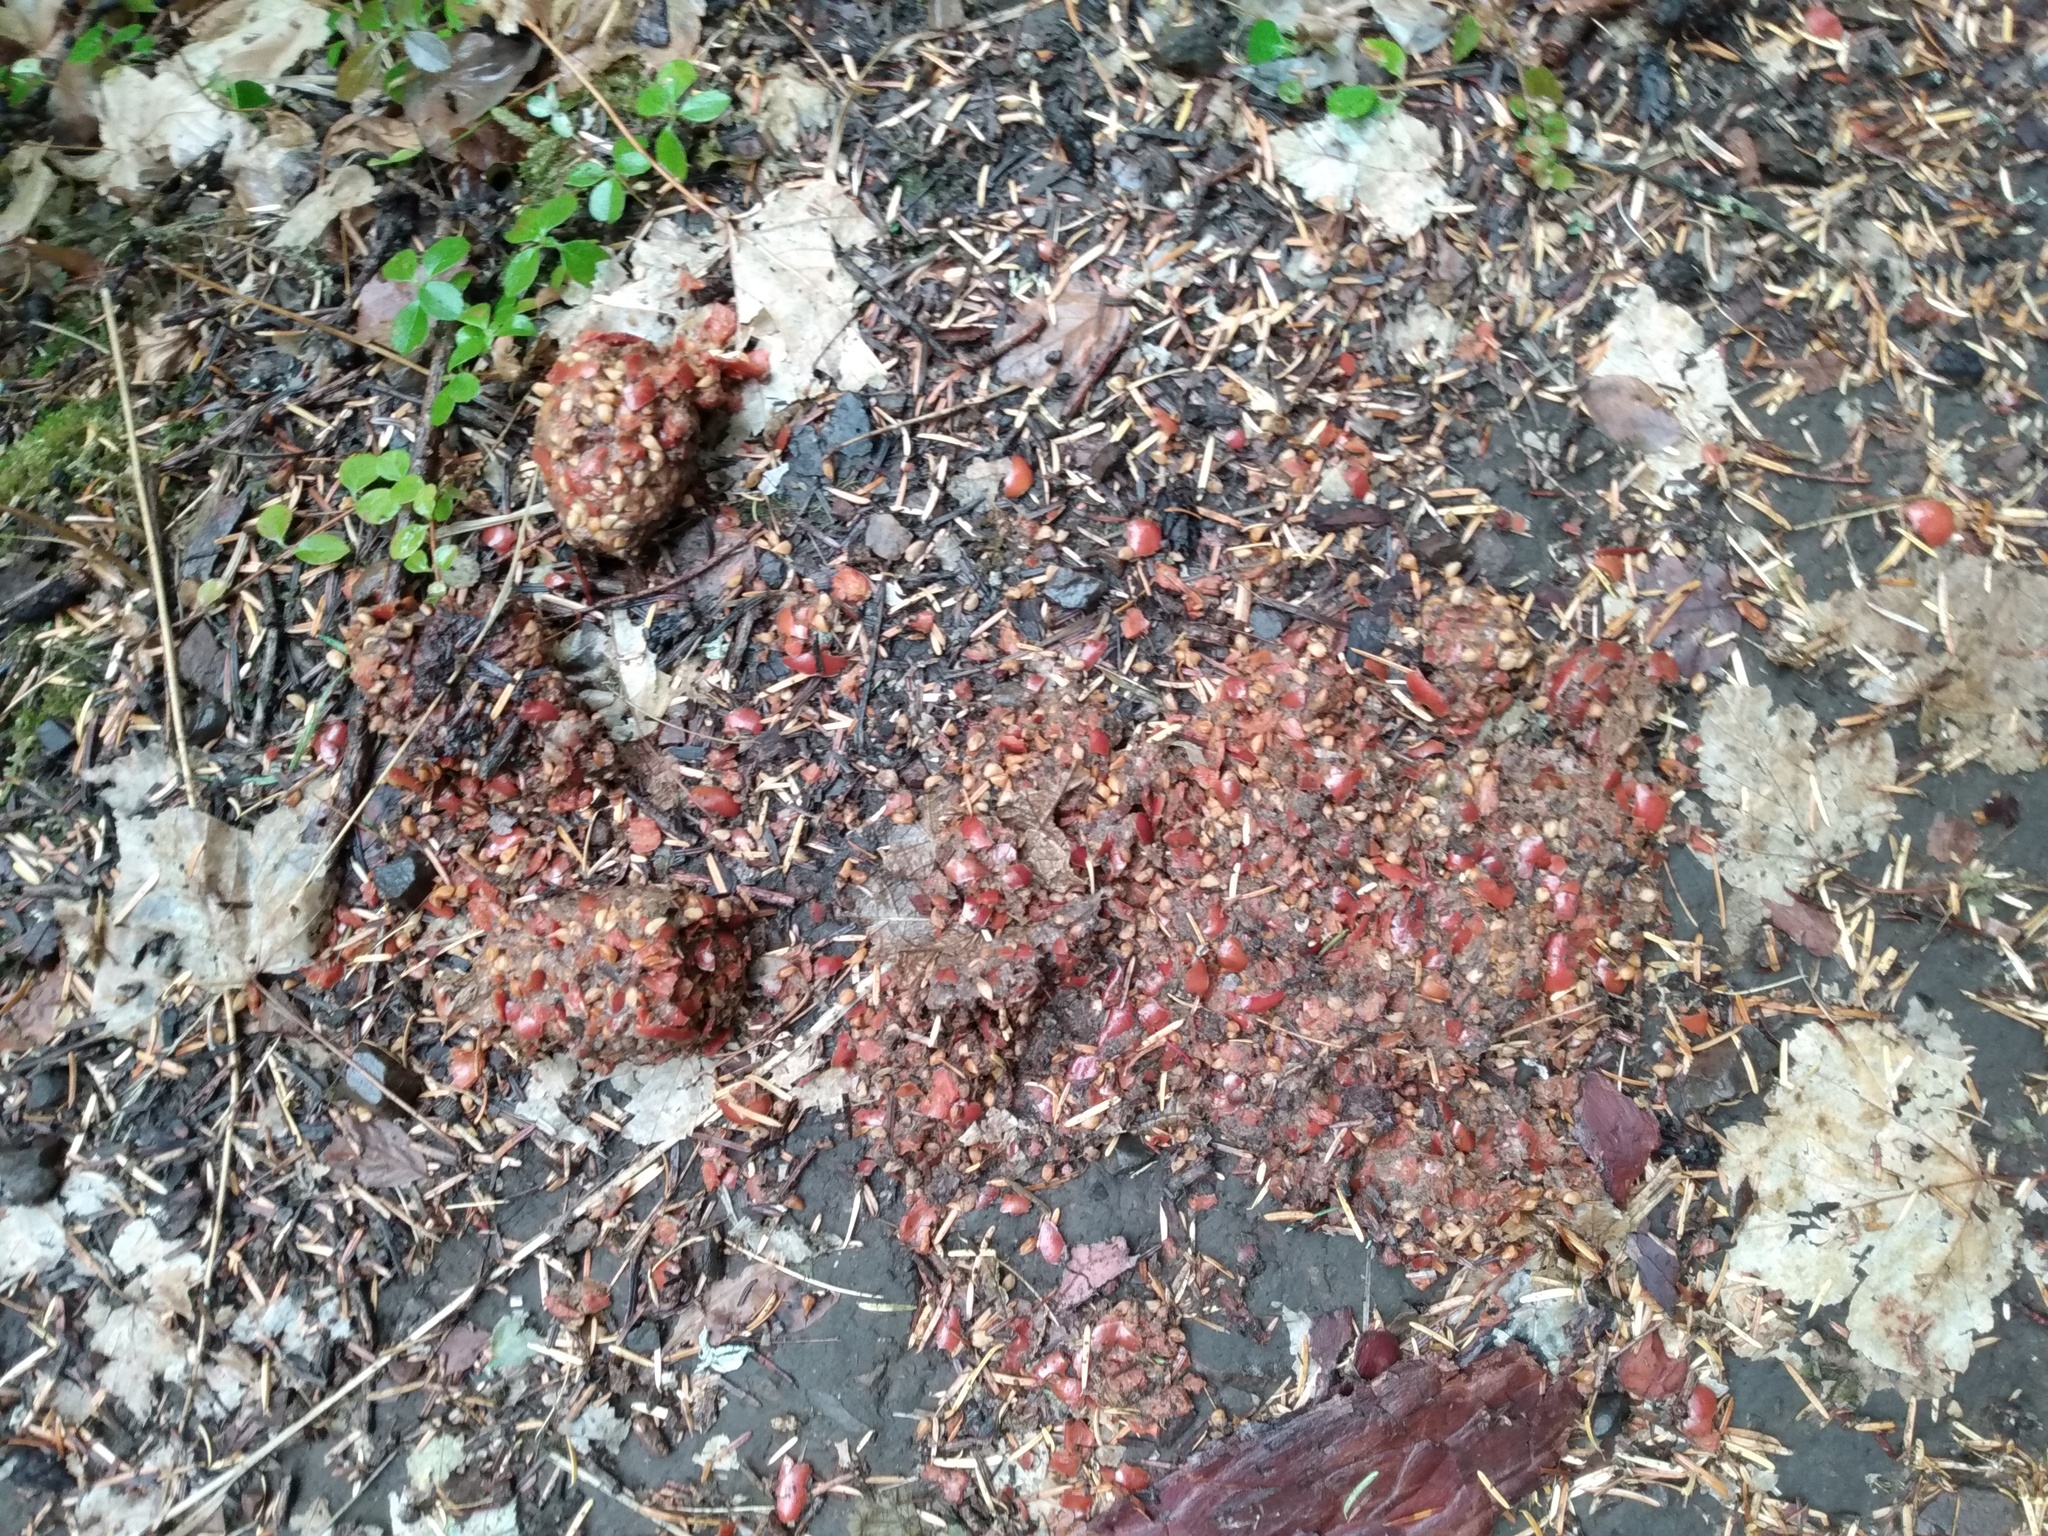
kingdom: Animalia
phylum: Chordata
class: Mammalia
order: Carnivora
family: Ursidae
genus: Ursus
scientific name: Ursus americanus
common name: American black bear
